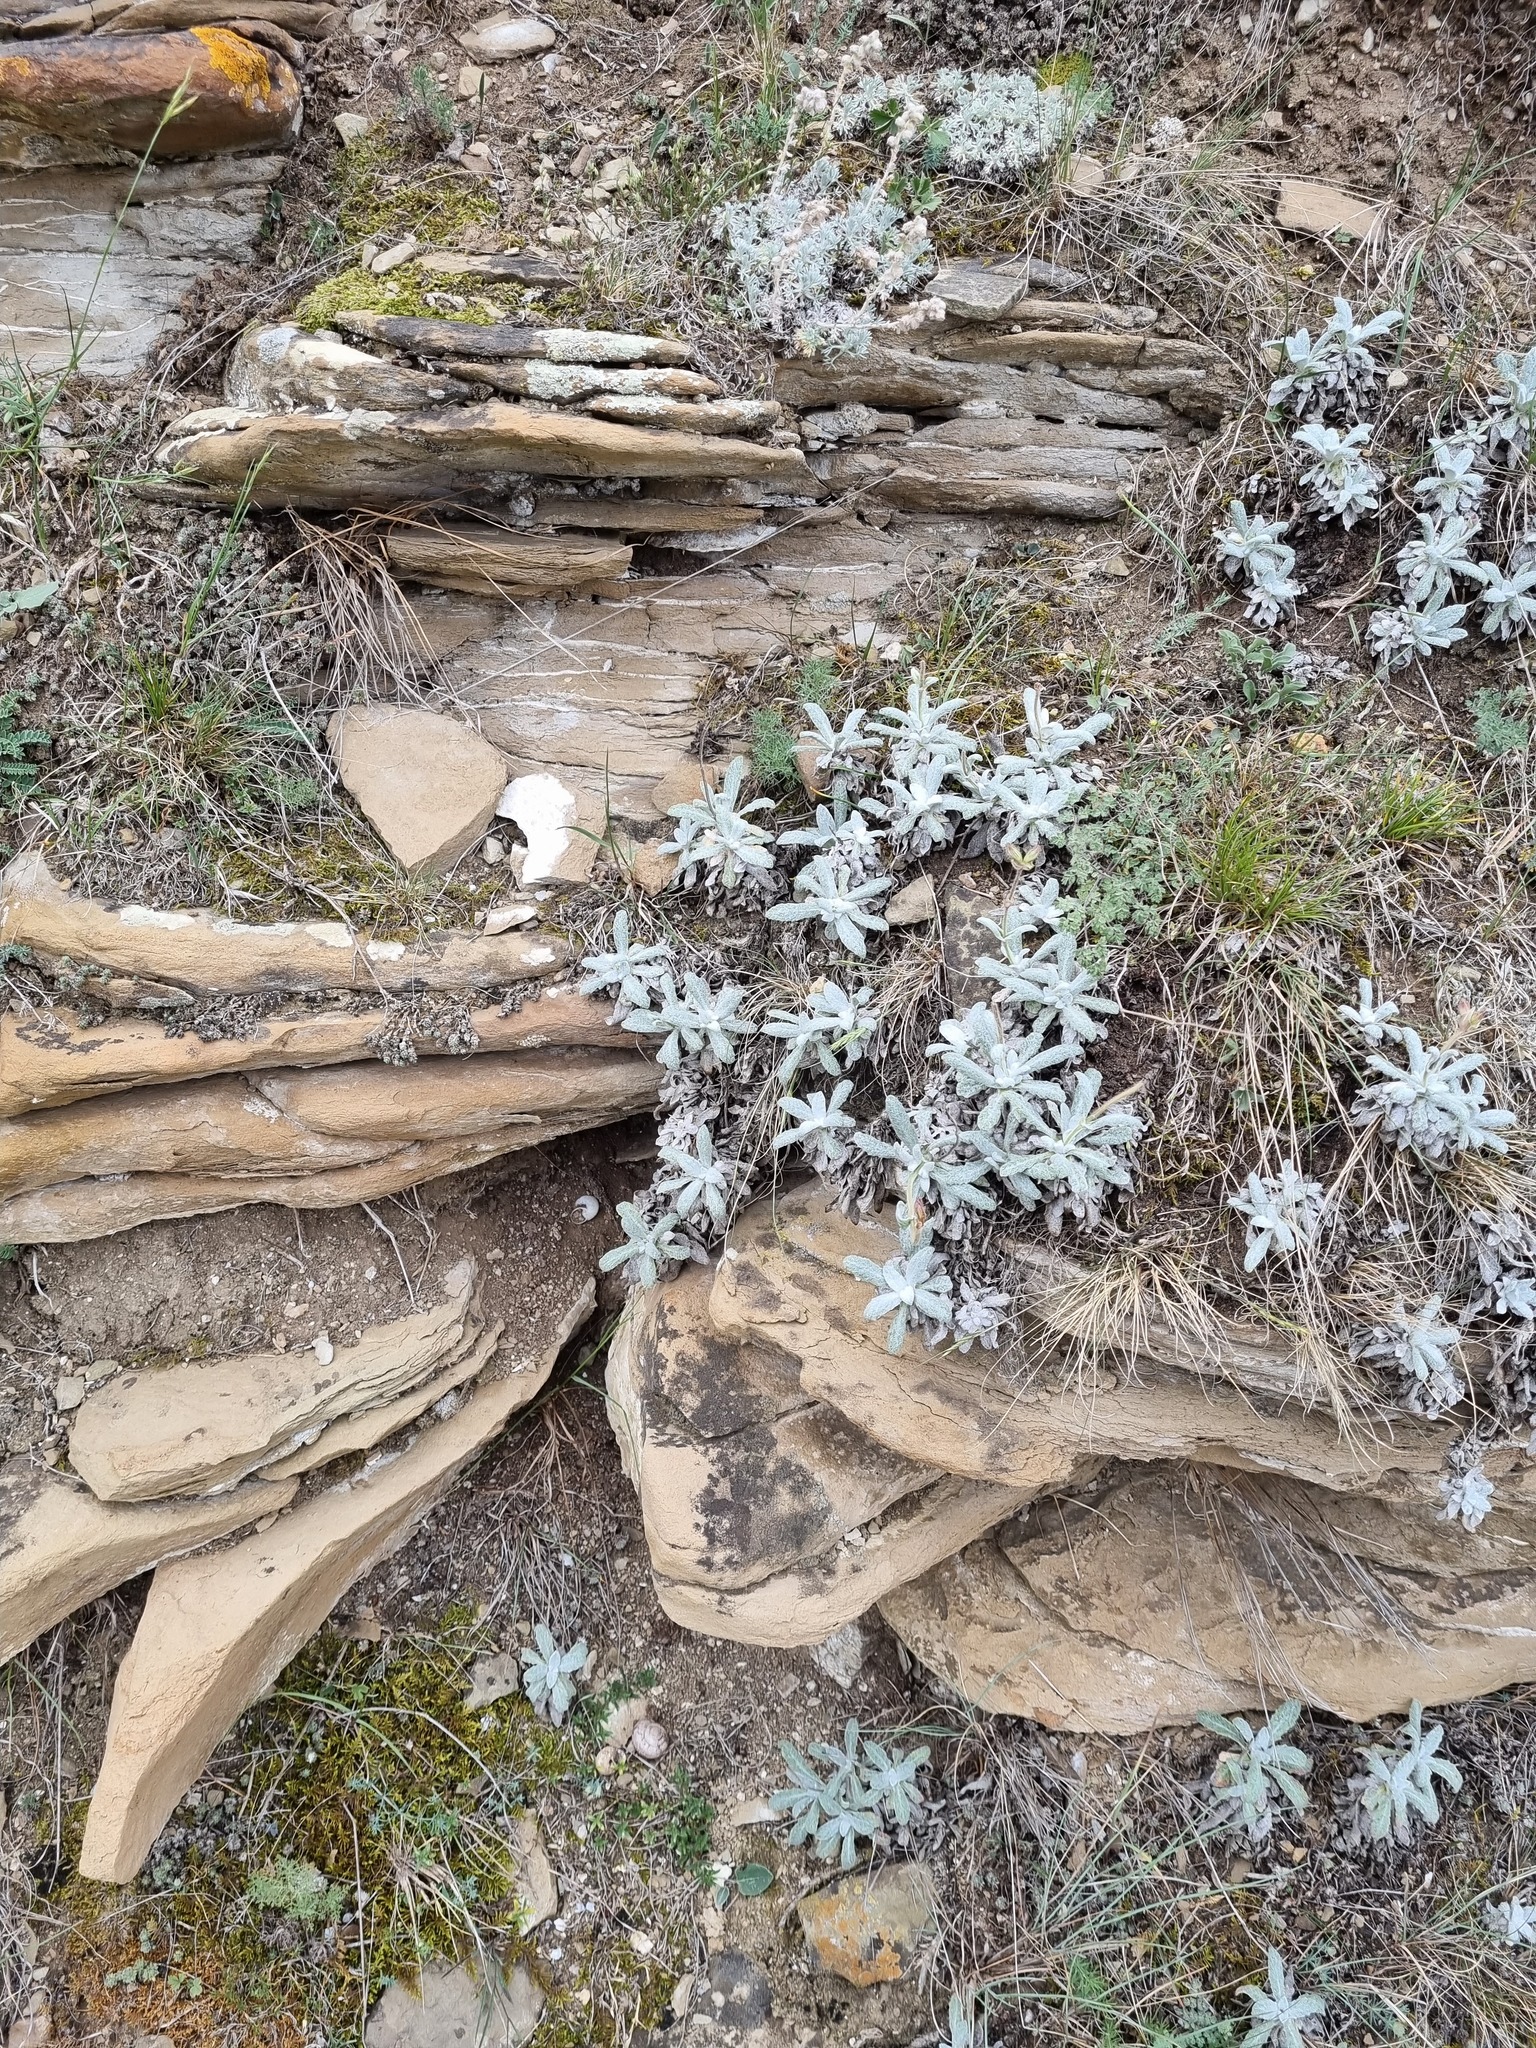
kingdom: Plantae
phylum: Tracheophyta
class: Magnoliopsida
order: Lamiales
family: Lamiaceae
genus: Salvia
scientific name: Salvia canescens
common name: Hoary salvia
